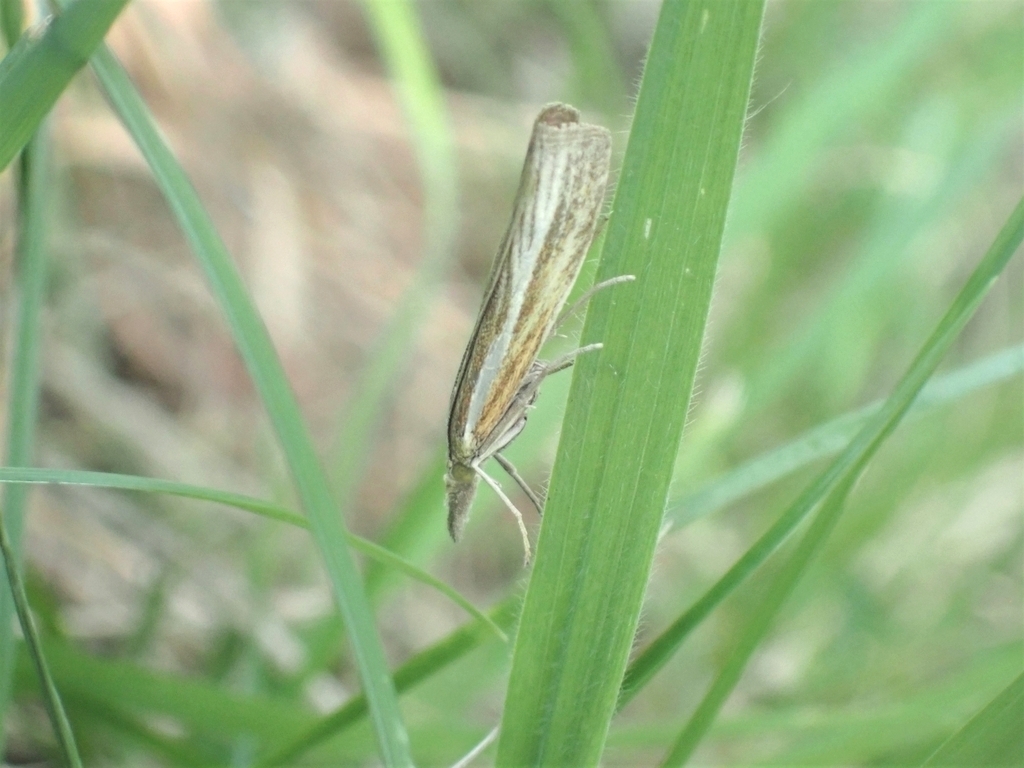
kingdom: Animalia
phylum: Arthropoda
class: Insecta
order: Lepidoptera
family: Crambidae
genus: Agriphila
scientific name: Agriphila tristellus
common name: Common grass-veneer
